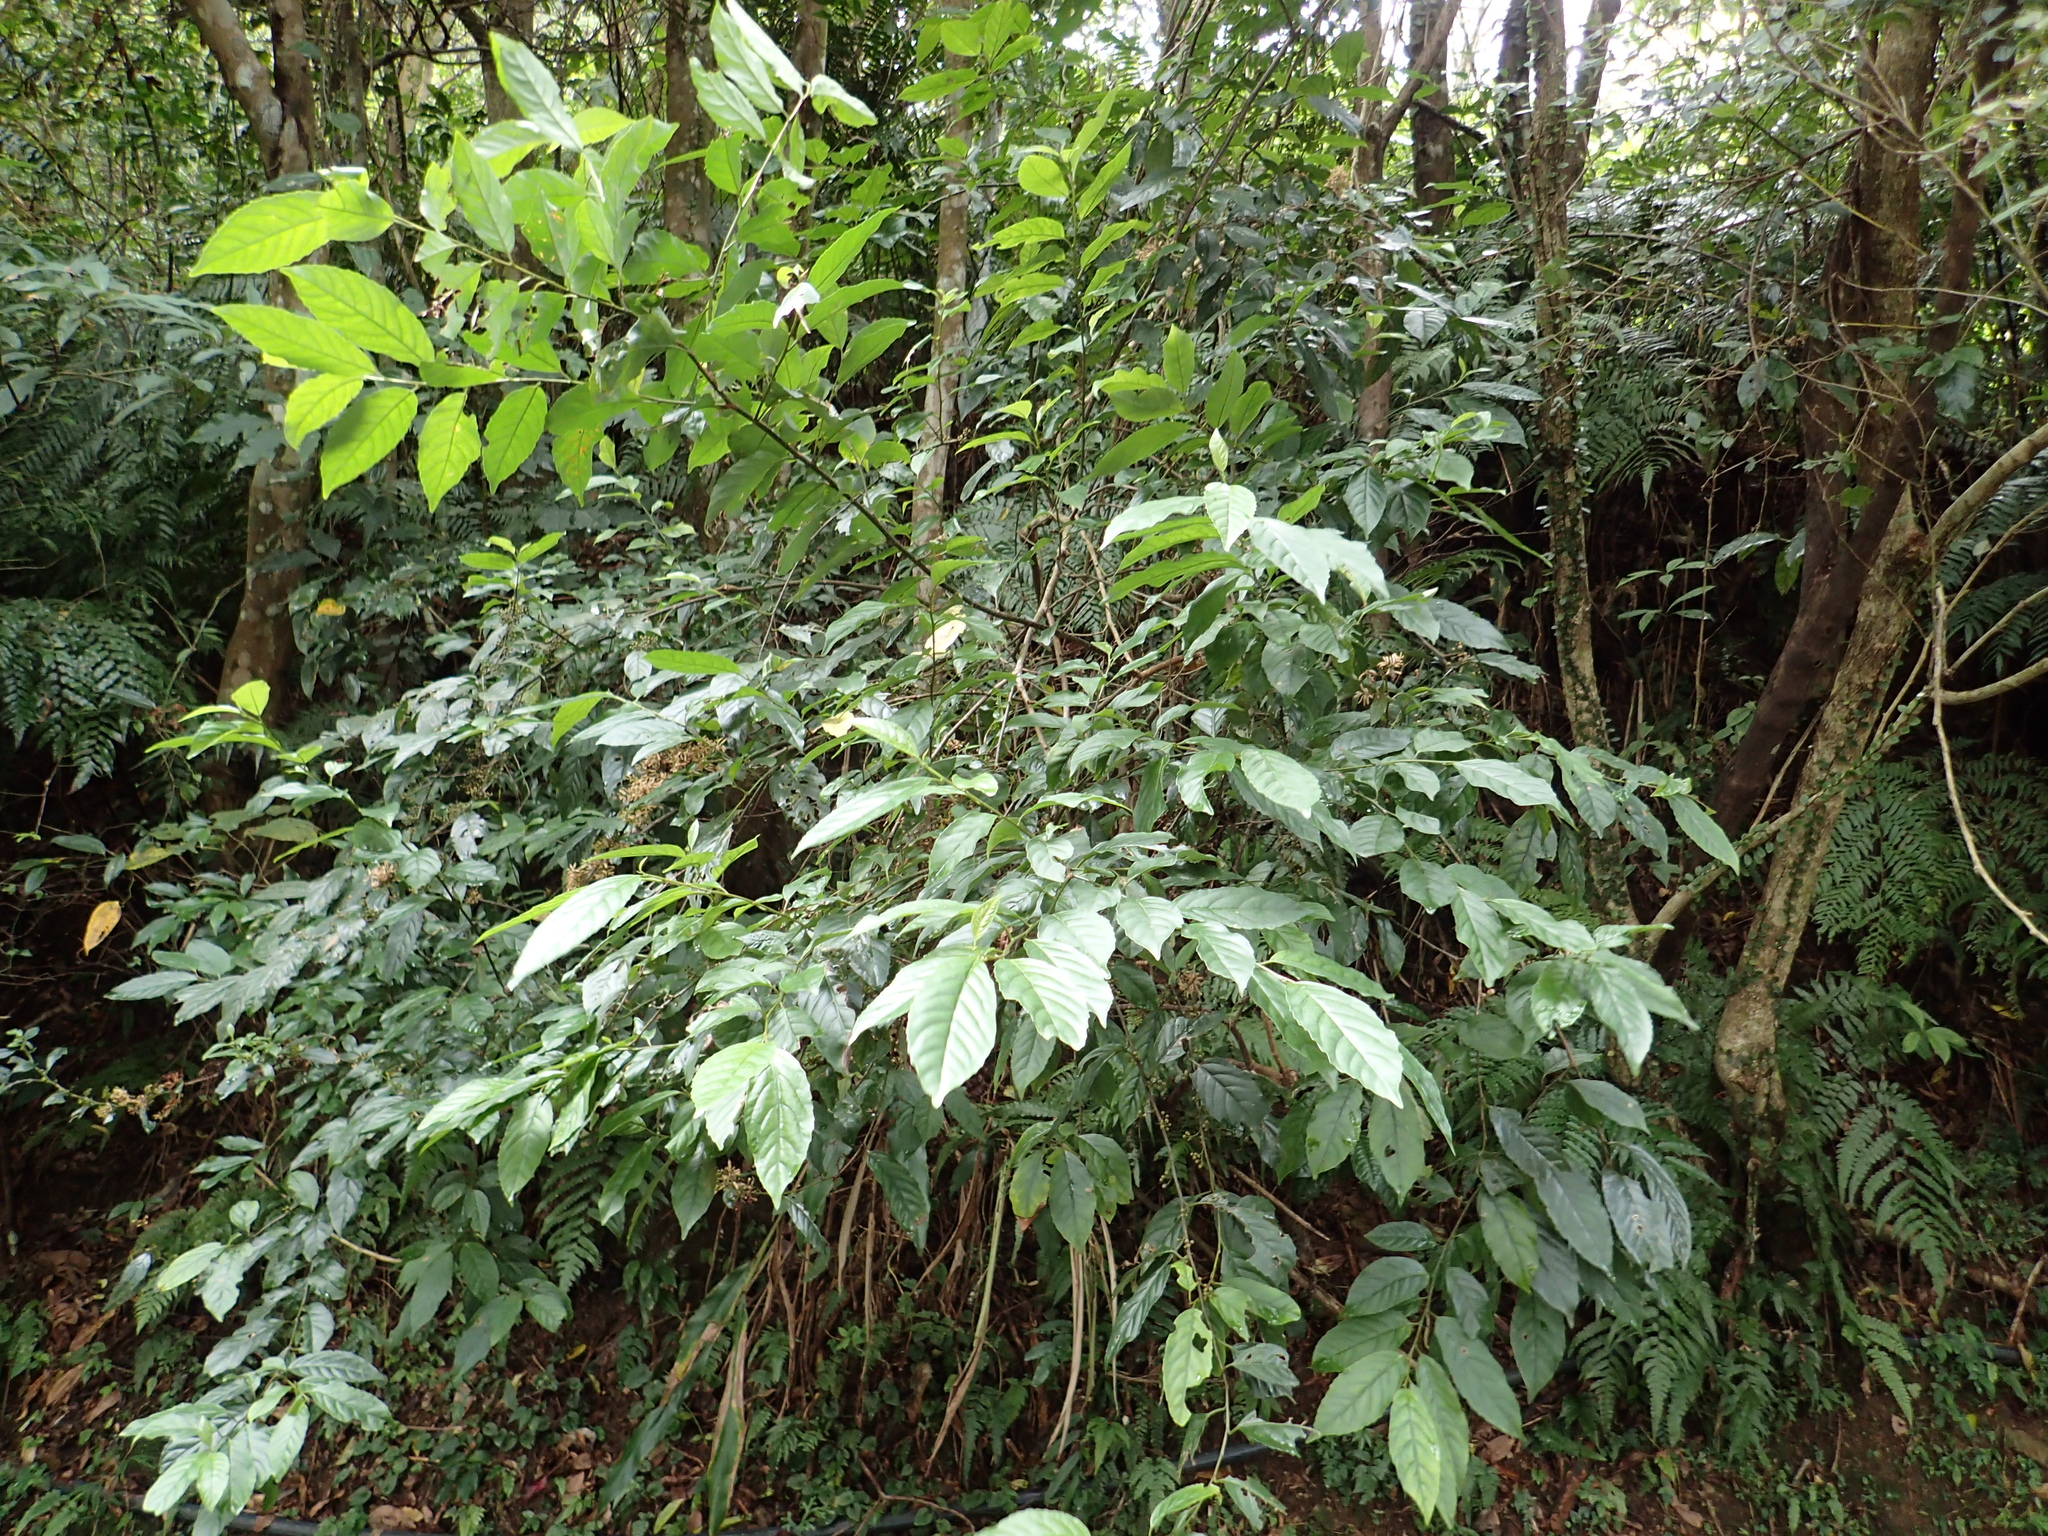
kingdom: Plantae
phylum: Tracheophyta
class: Magnoliopsida
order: Ericales
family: Primulaceae
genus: Maesa
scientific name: Maesa perlaria
